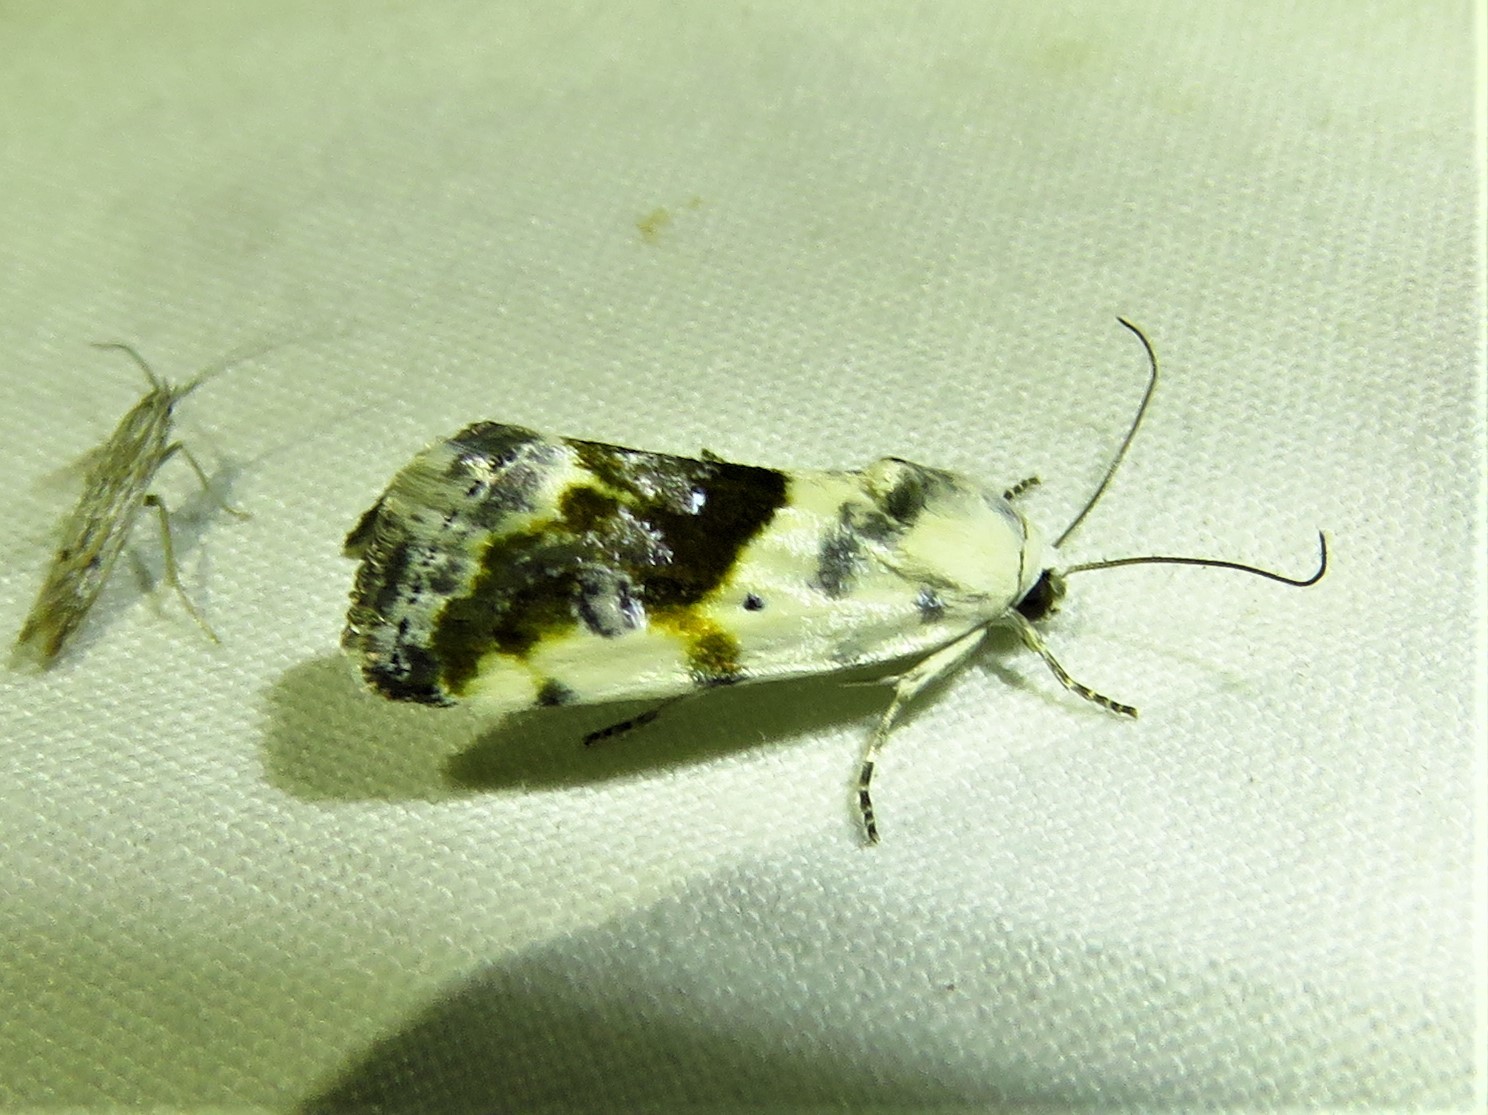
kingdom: Animalia
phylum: Arthropoda
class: Insecta
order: Lepidoptera
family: Noctuidae
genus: Acontia
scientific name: Acontia candefacta
